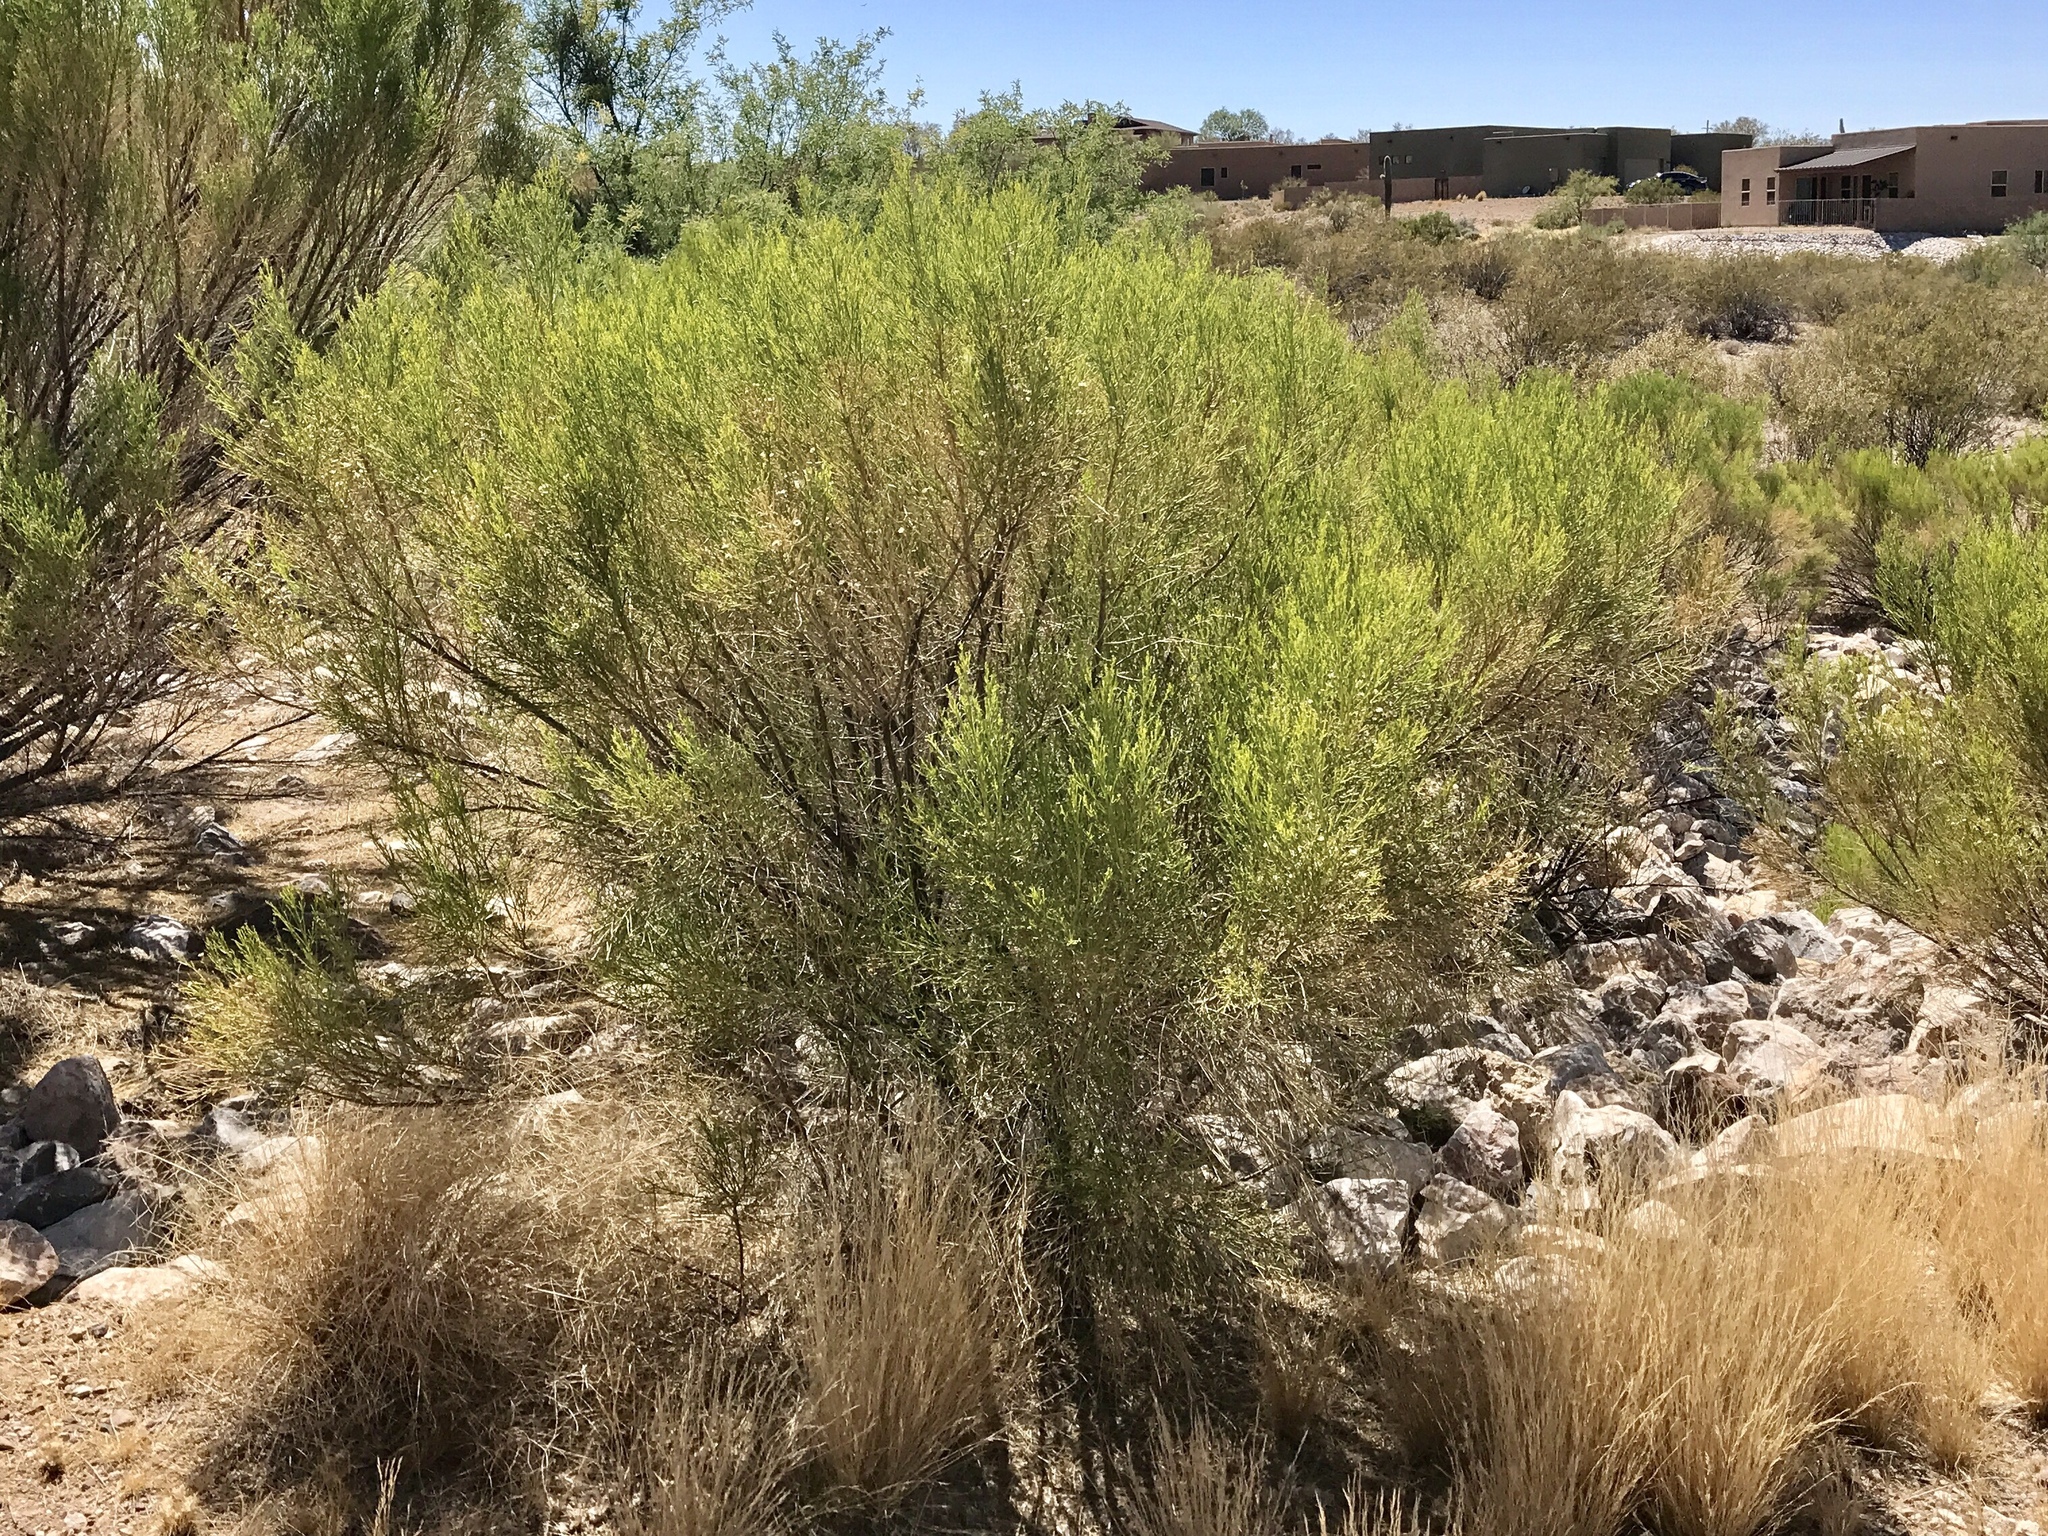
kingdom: Plantae
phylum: Tracheophyta
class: Magnoliopsida
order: Asterales
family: Asteraceae
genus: Baccharis
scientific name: Baccharis sarothroides
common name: Desert-broom
